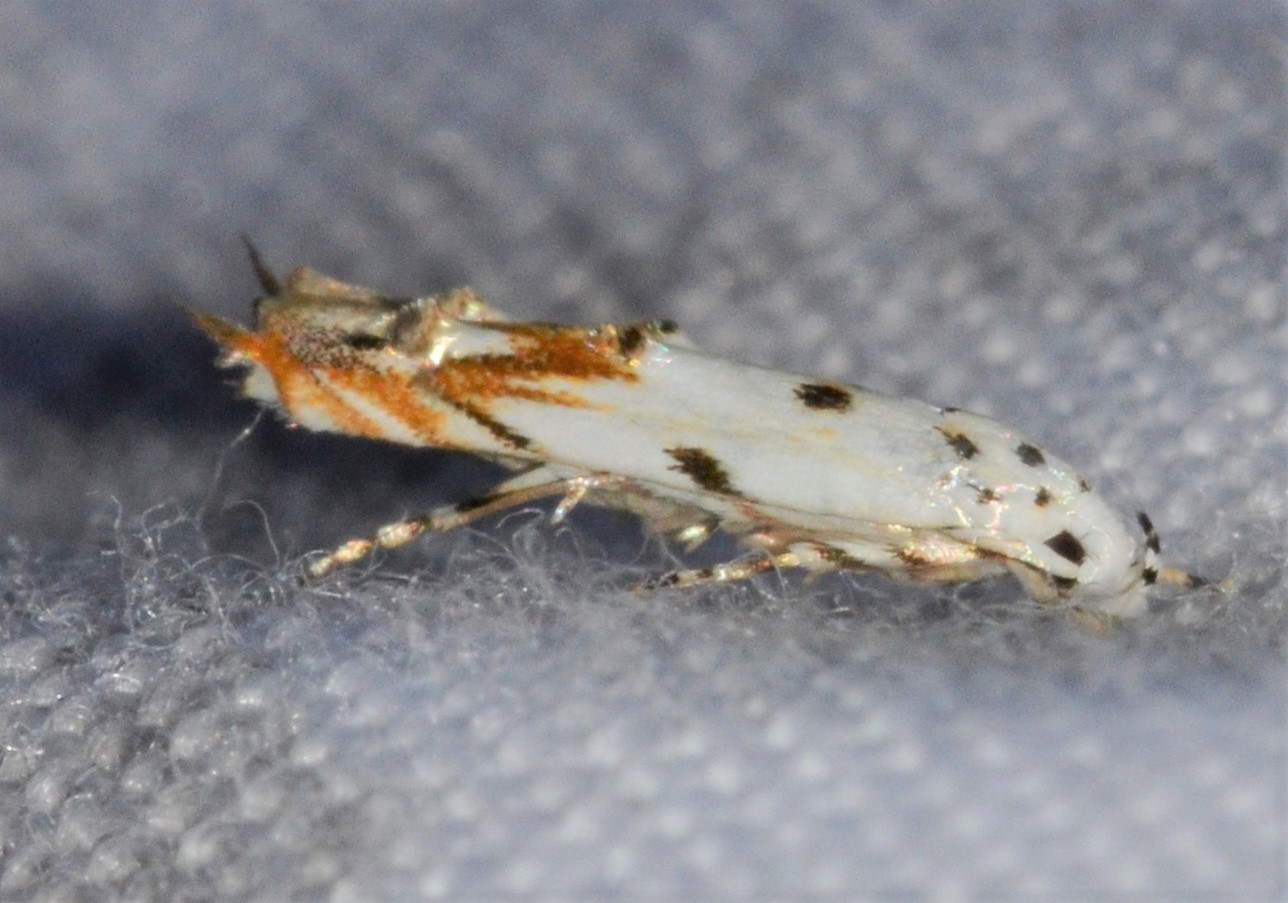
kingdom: Animalia
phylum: Arthropoda
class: Insecta
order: Lepidoptera
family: Momphidae
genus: Mompha
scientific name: Mompha eloisella
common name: Red-streaked mompha moth
